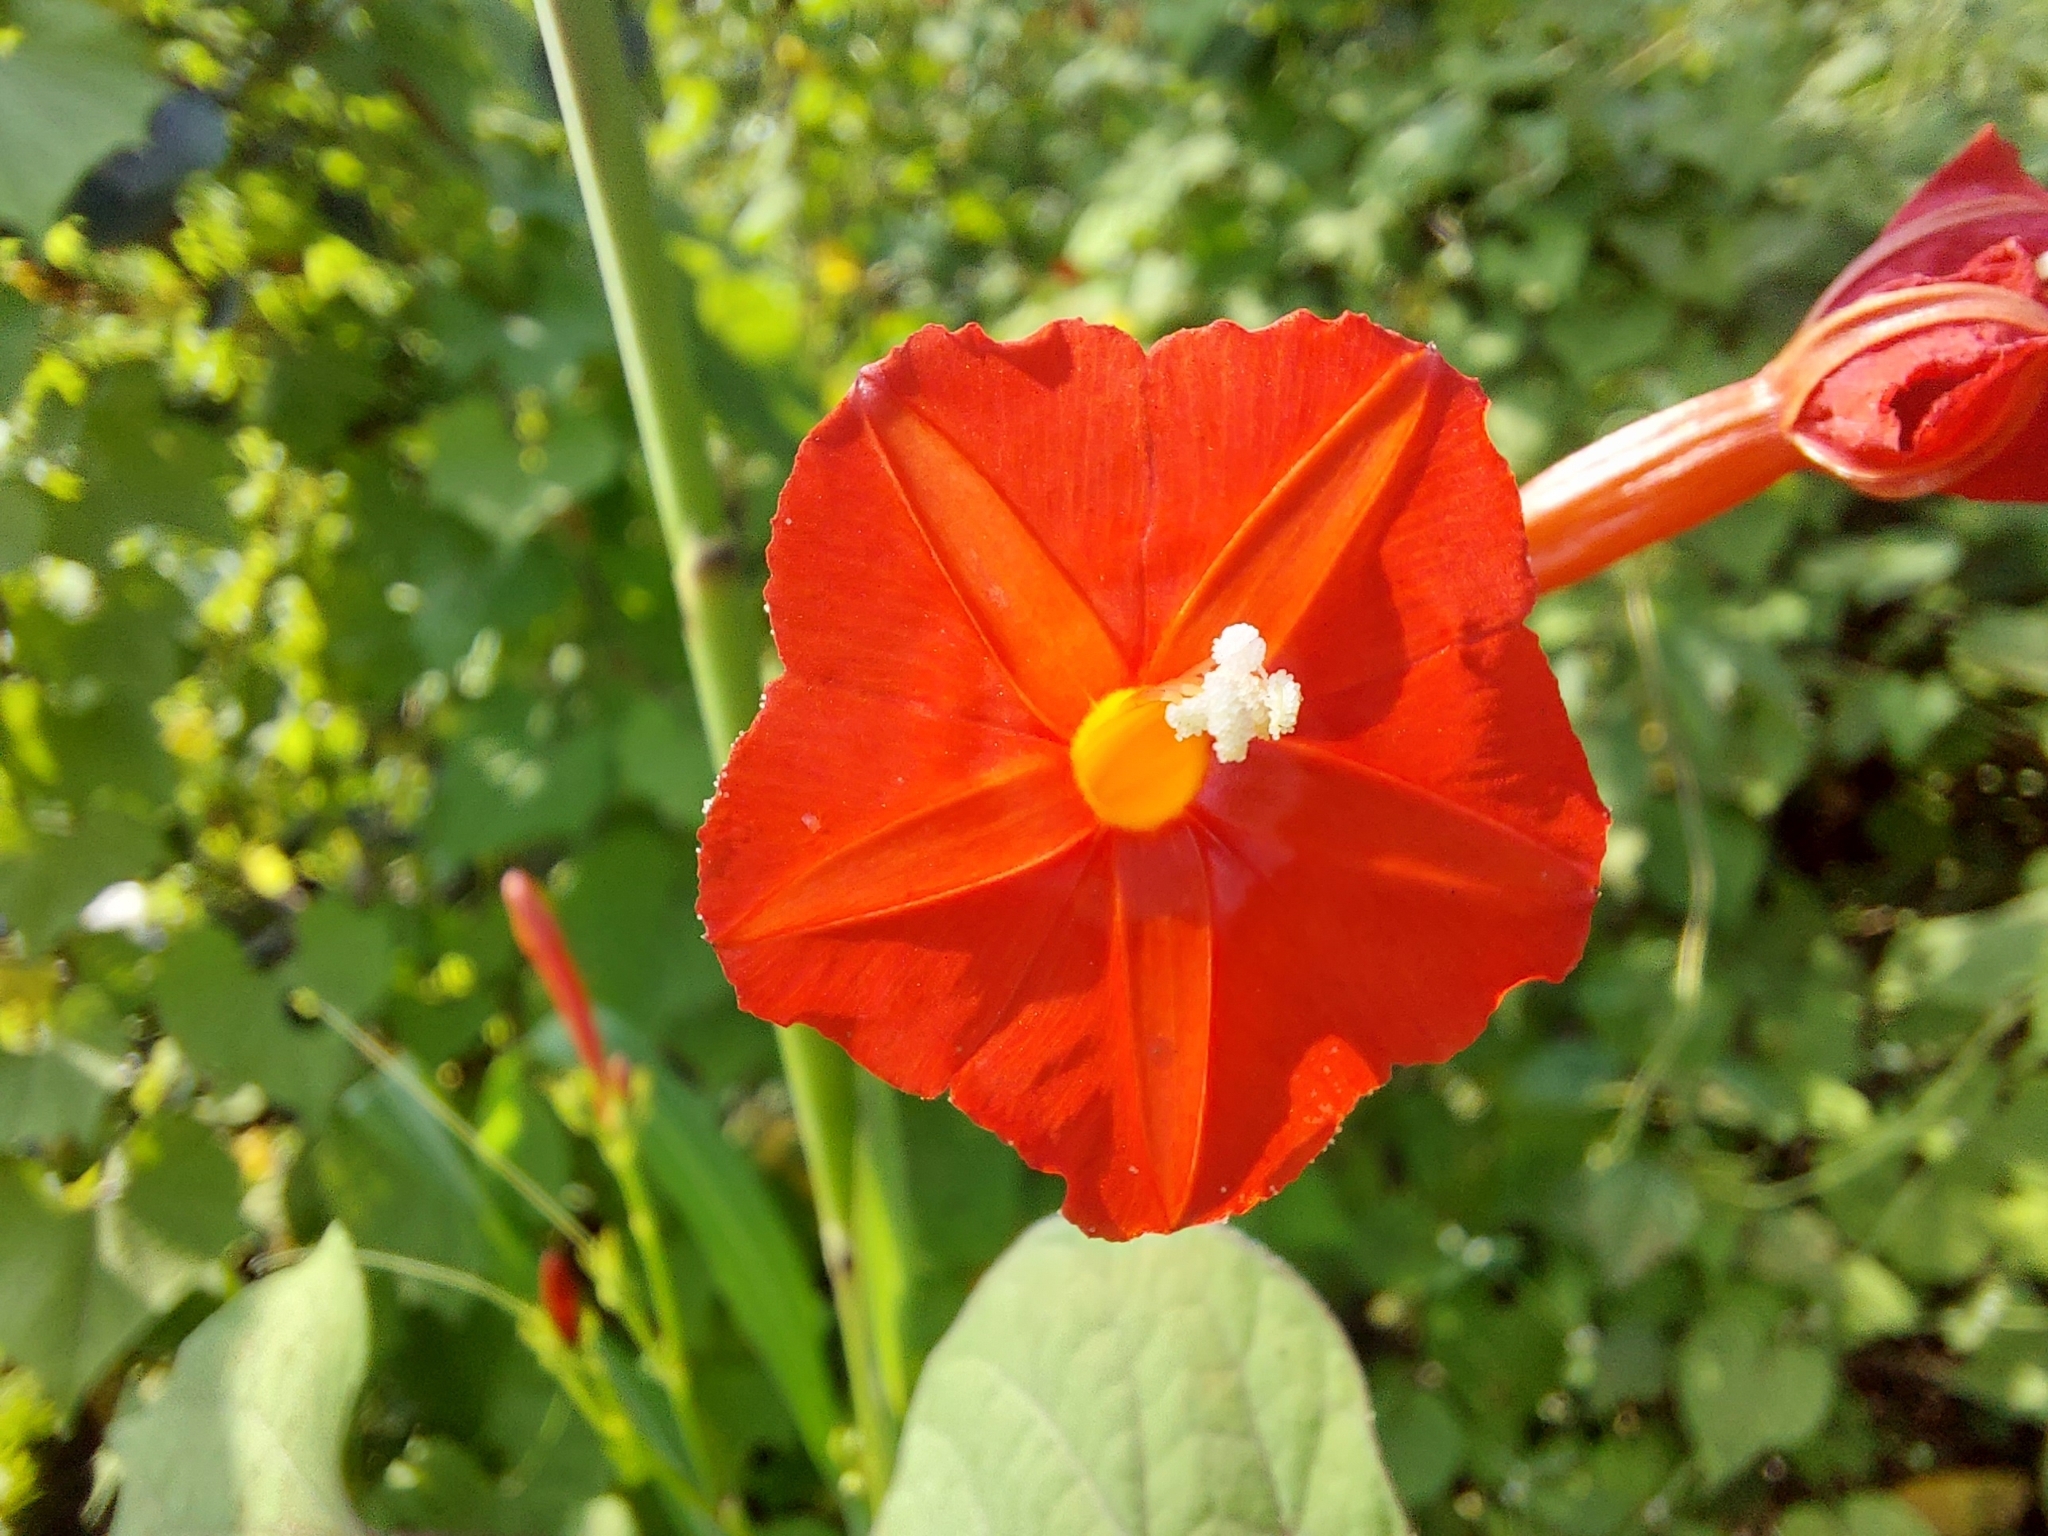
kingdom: Plantae
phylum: Tracheophyta
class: Magnoliopsida
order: Solanales
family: Convolvulaceae
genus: Ipomoea
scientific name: Ipomoea hederifolia
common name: Ivy-leaf morning-glory
